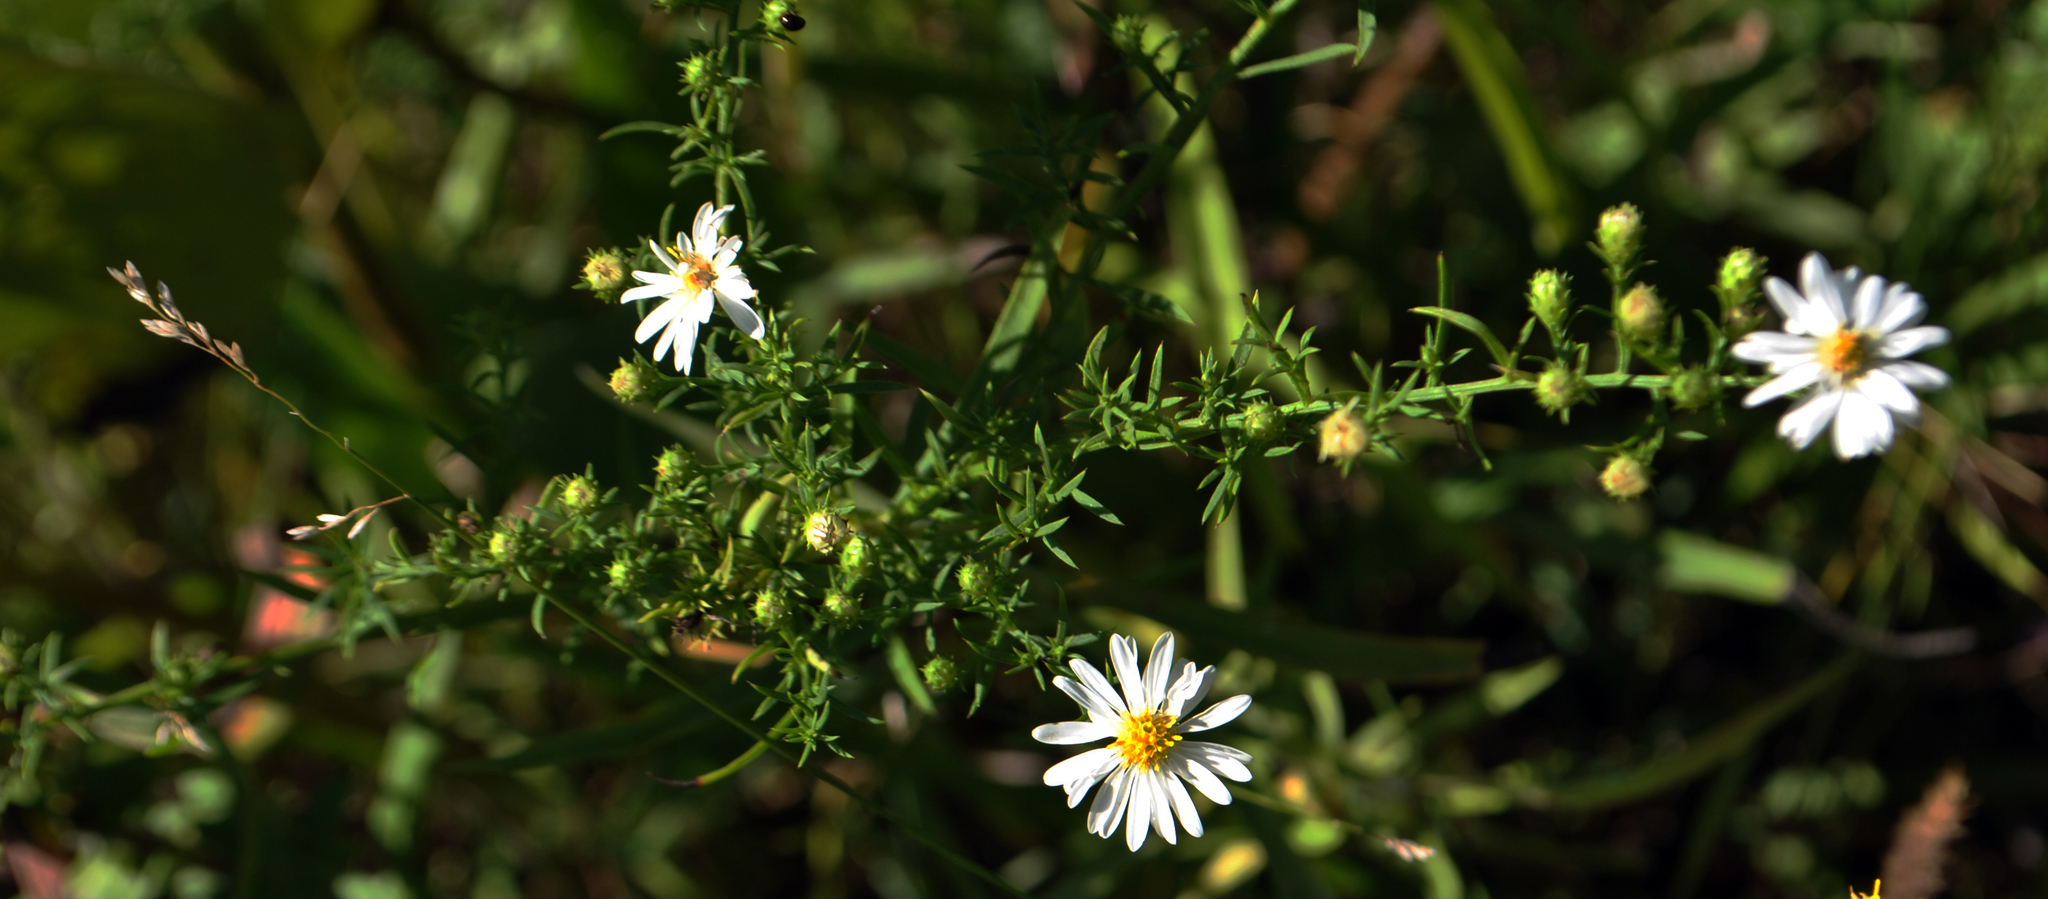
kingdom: Plantae
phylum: Tracheophyta
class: Magnoliopsida
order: Asterales
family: Asteraceae
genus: Symphyotrichum
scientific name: Symphyotrichum lateriflorum
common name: Calico aster
